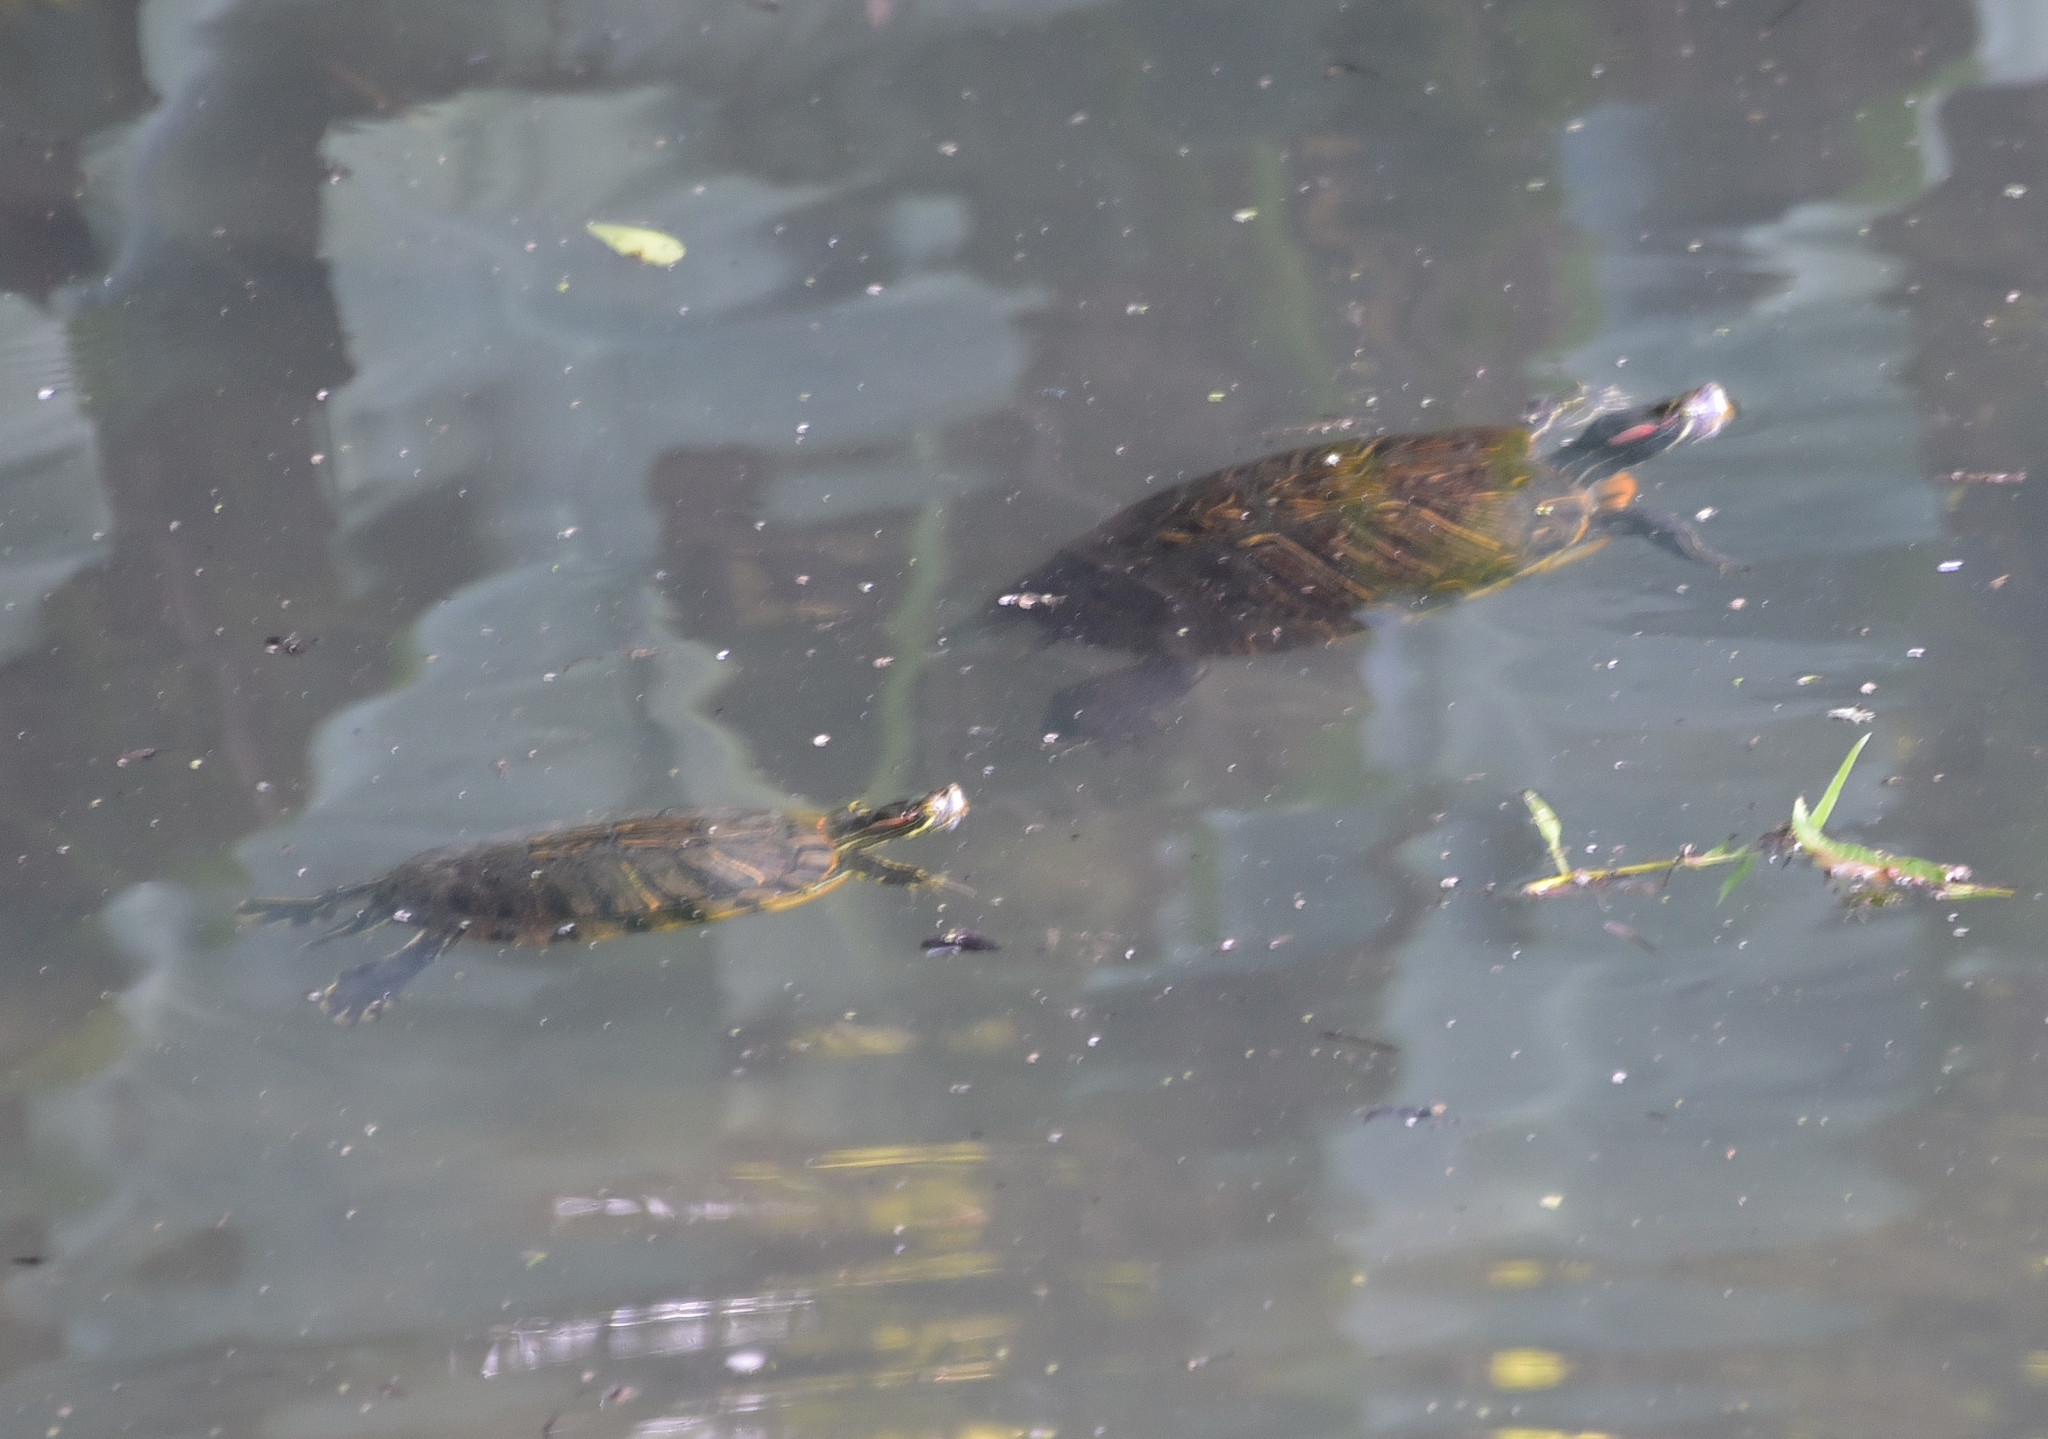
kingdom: Animalia
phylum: Chordata
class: Testudines
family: Emydidae
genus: Trachemys
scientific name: Trachemys scripta
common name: Slider
